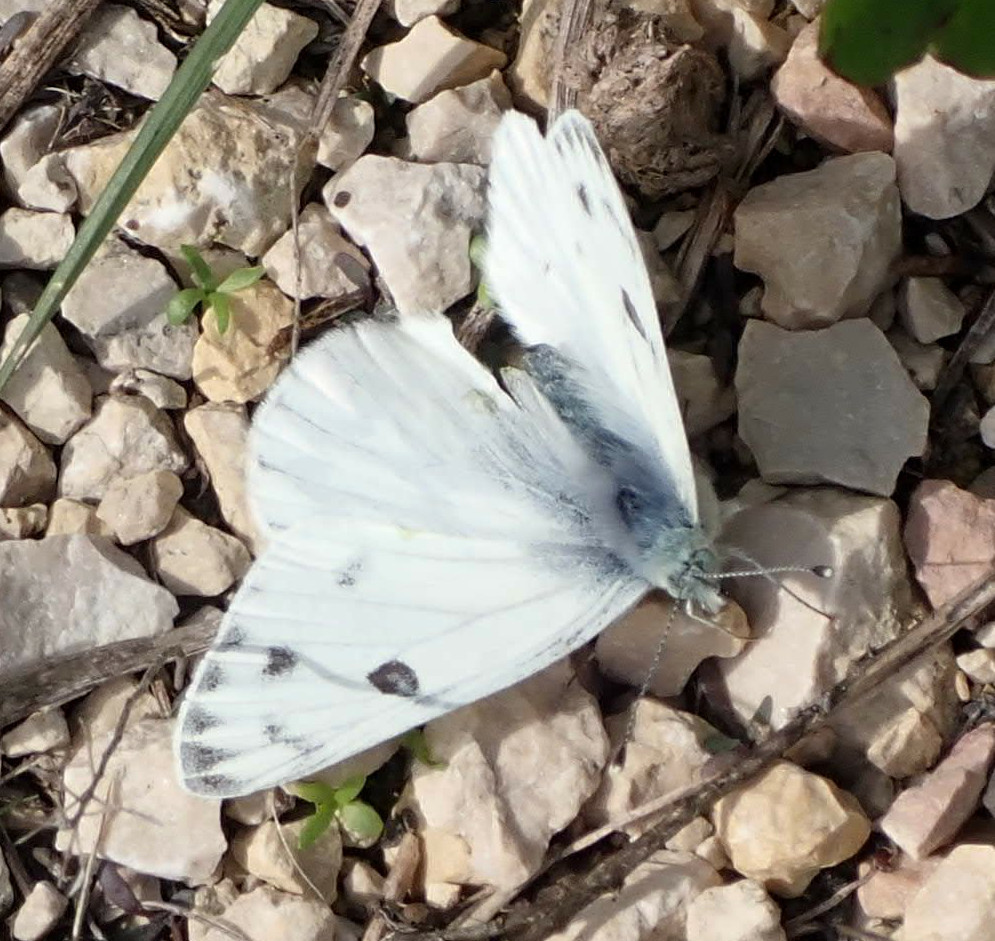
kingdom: Animalia
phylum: Arthropoda
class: Insecta
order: Lepidoptera
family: Pieridae
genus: Pontia
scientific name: Pontia protodice
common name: Checkered white
